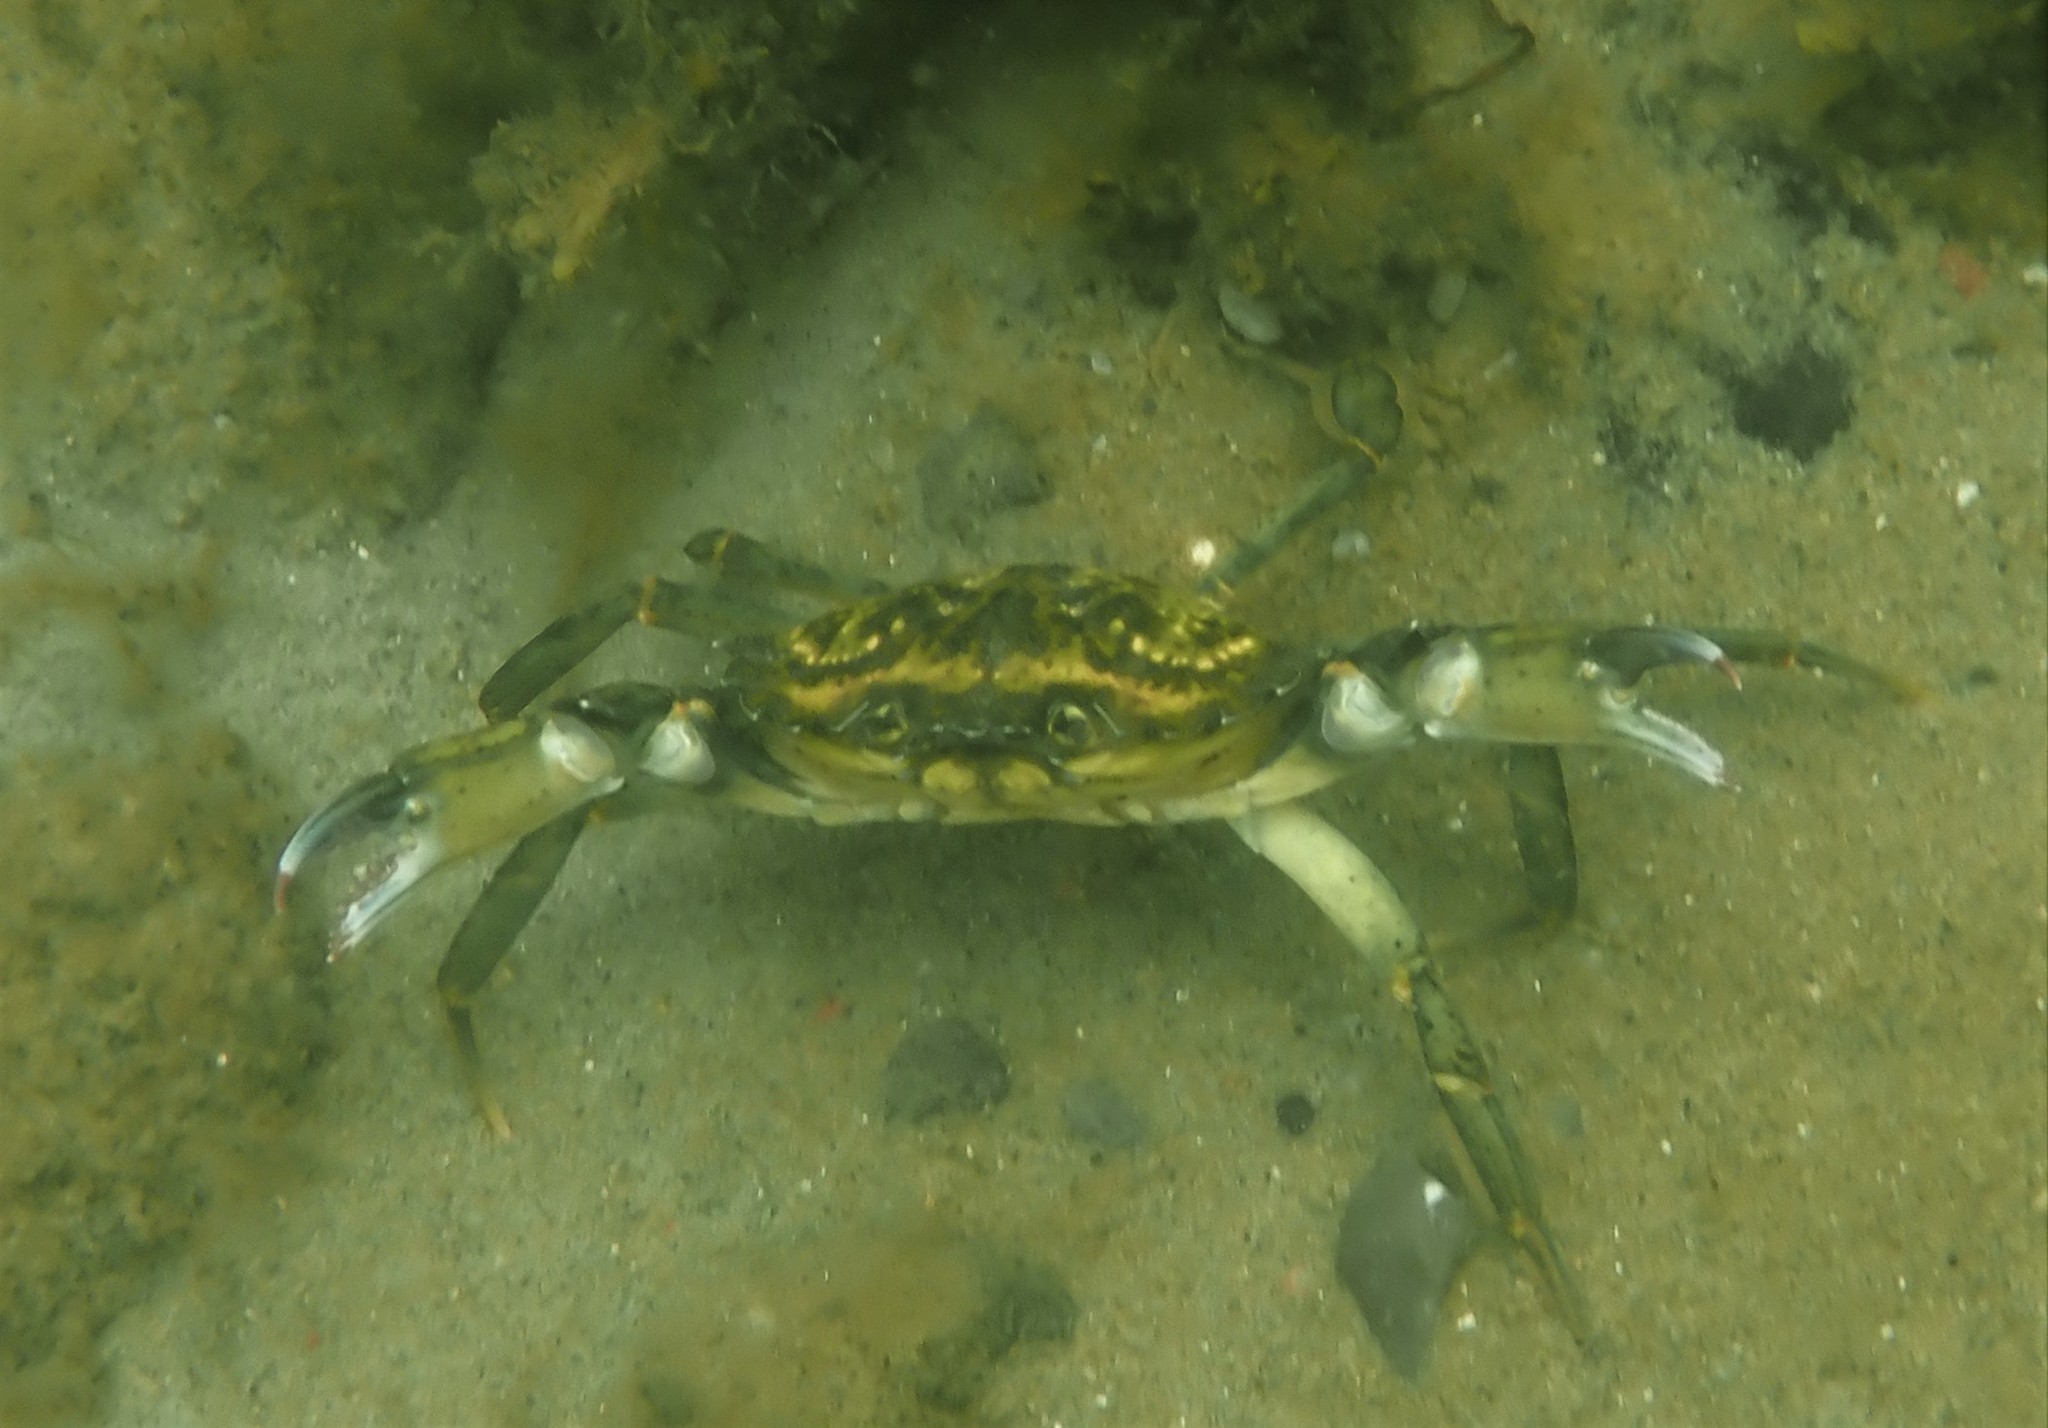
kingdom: Animalia
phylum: Arthropoda
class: Malacostraca
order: Decapoda
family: Carcinidae
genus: Carcinus
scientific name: Carcinus maenas
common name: European green crab
